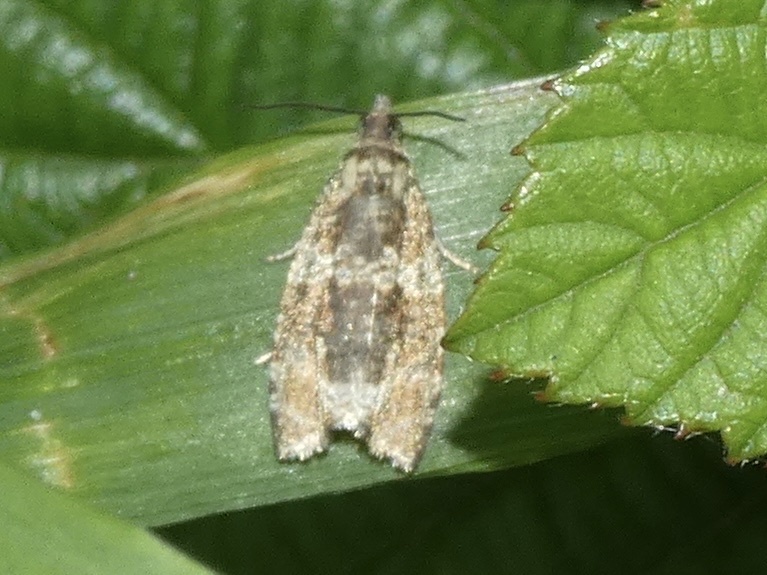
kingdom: Animalia
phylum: Arthropoda
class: Insecta
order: Lepidoptera
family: Tortricidae
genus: Syricoris
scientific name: Syricoris lacunana
